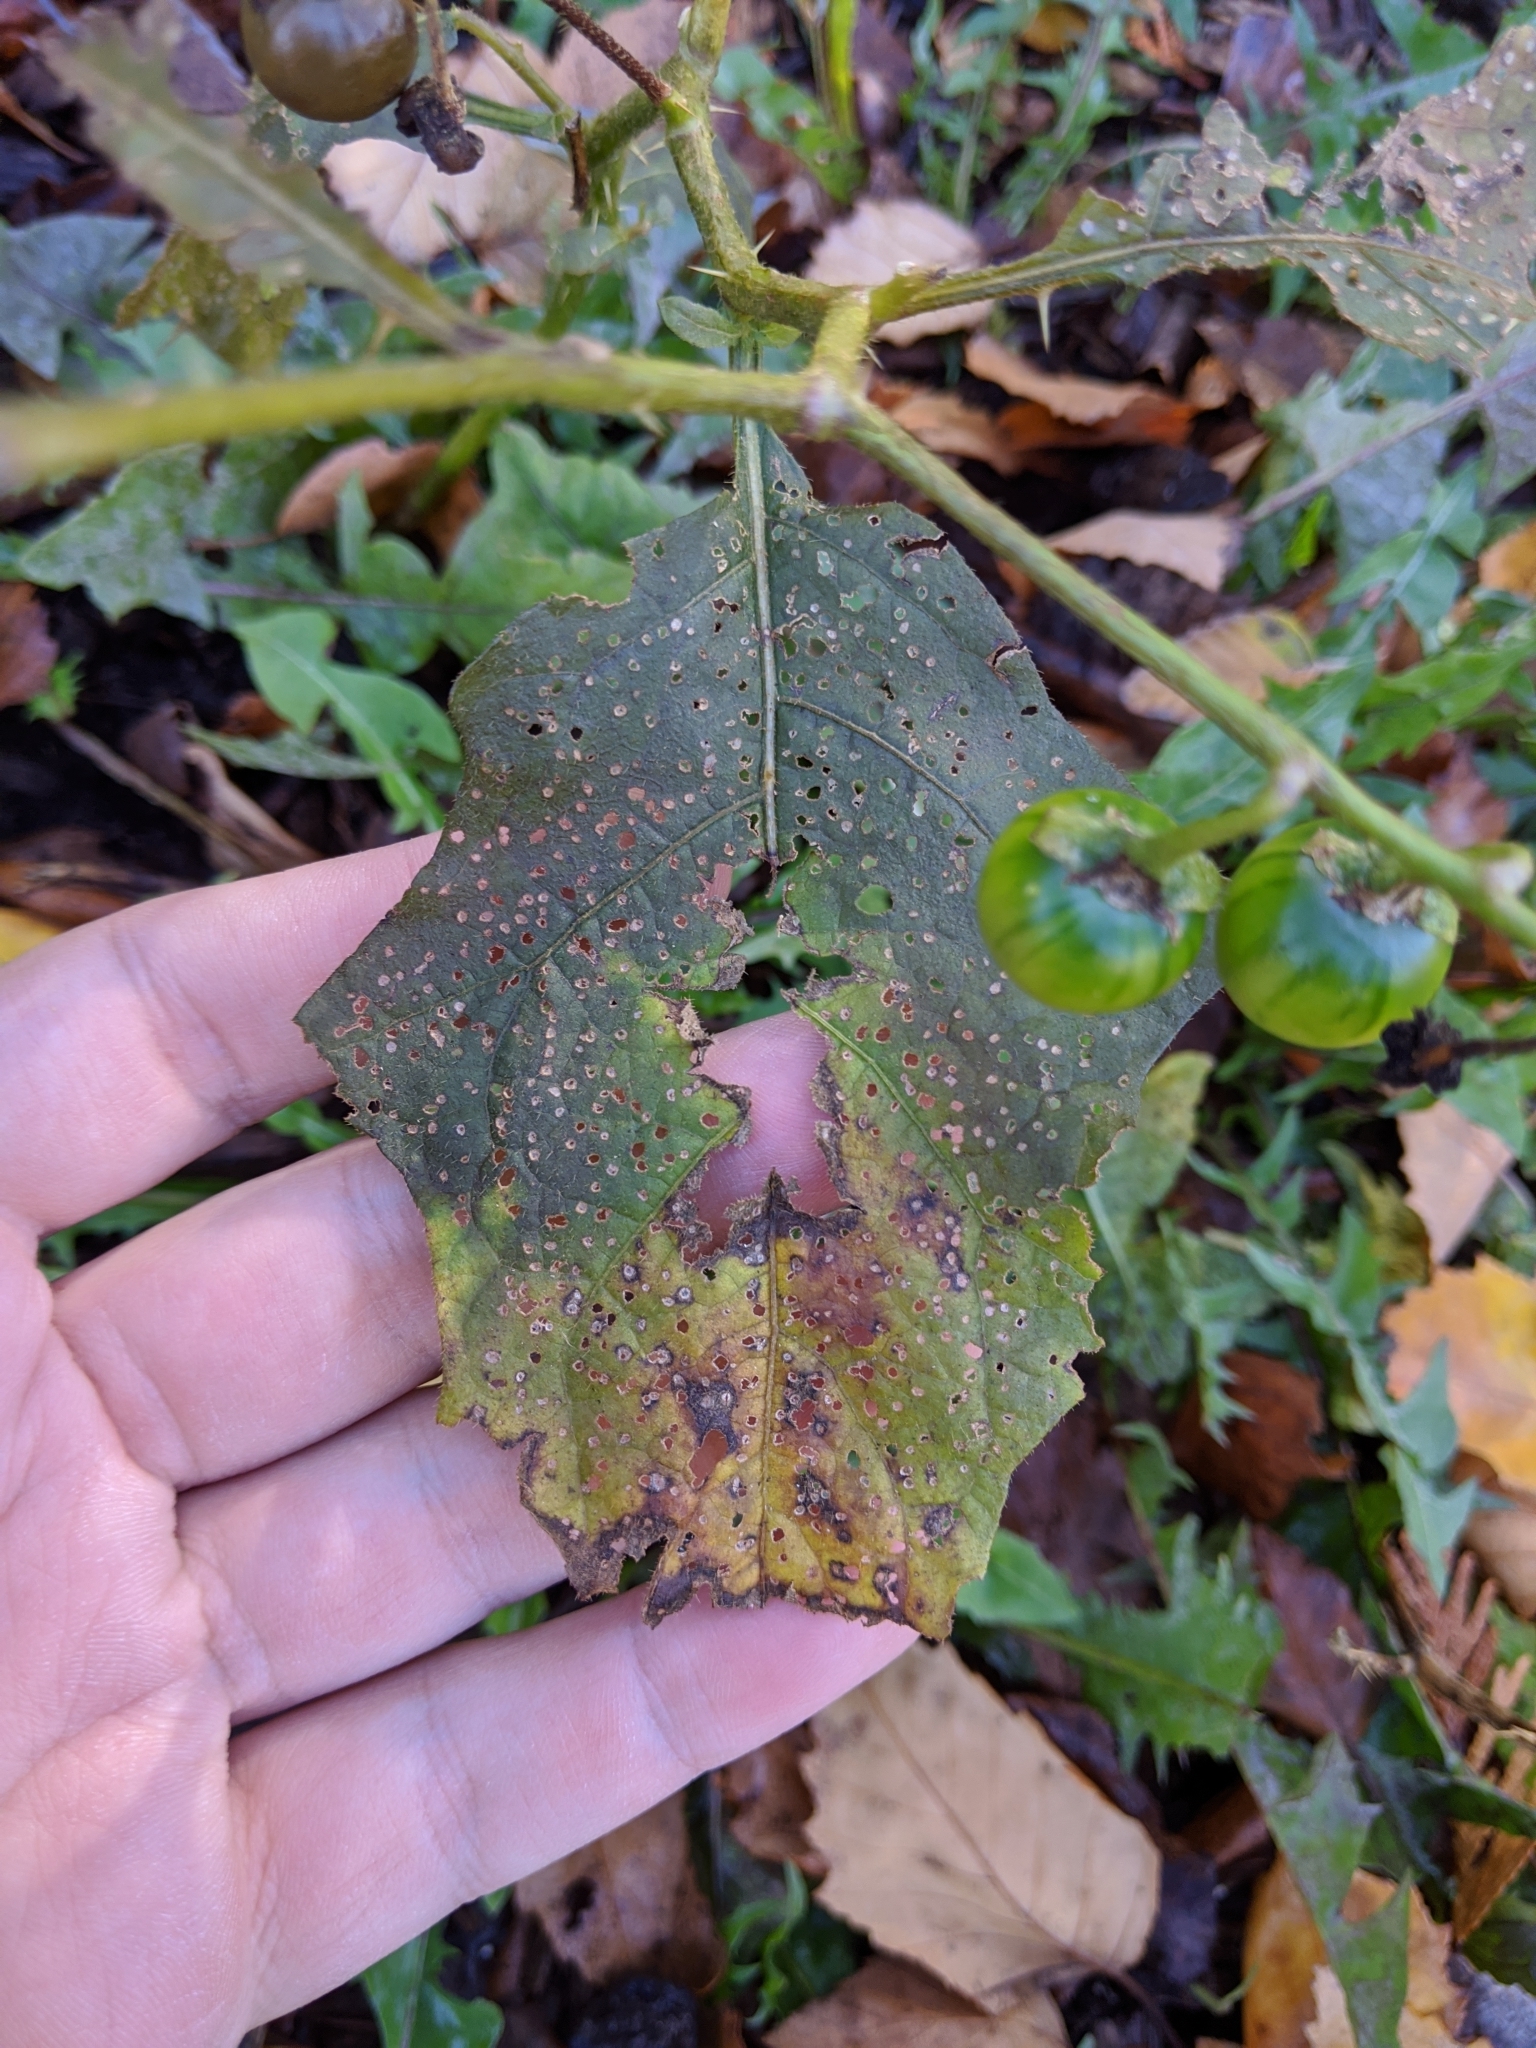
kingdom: Plantae
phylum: Tracheophyta
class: Magnoliopsida
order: Solanales
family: Solanaceae
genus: Solanum
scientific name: Solanum carolinense
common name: Horse-nettle
